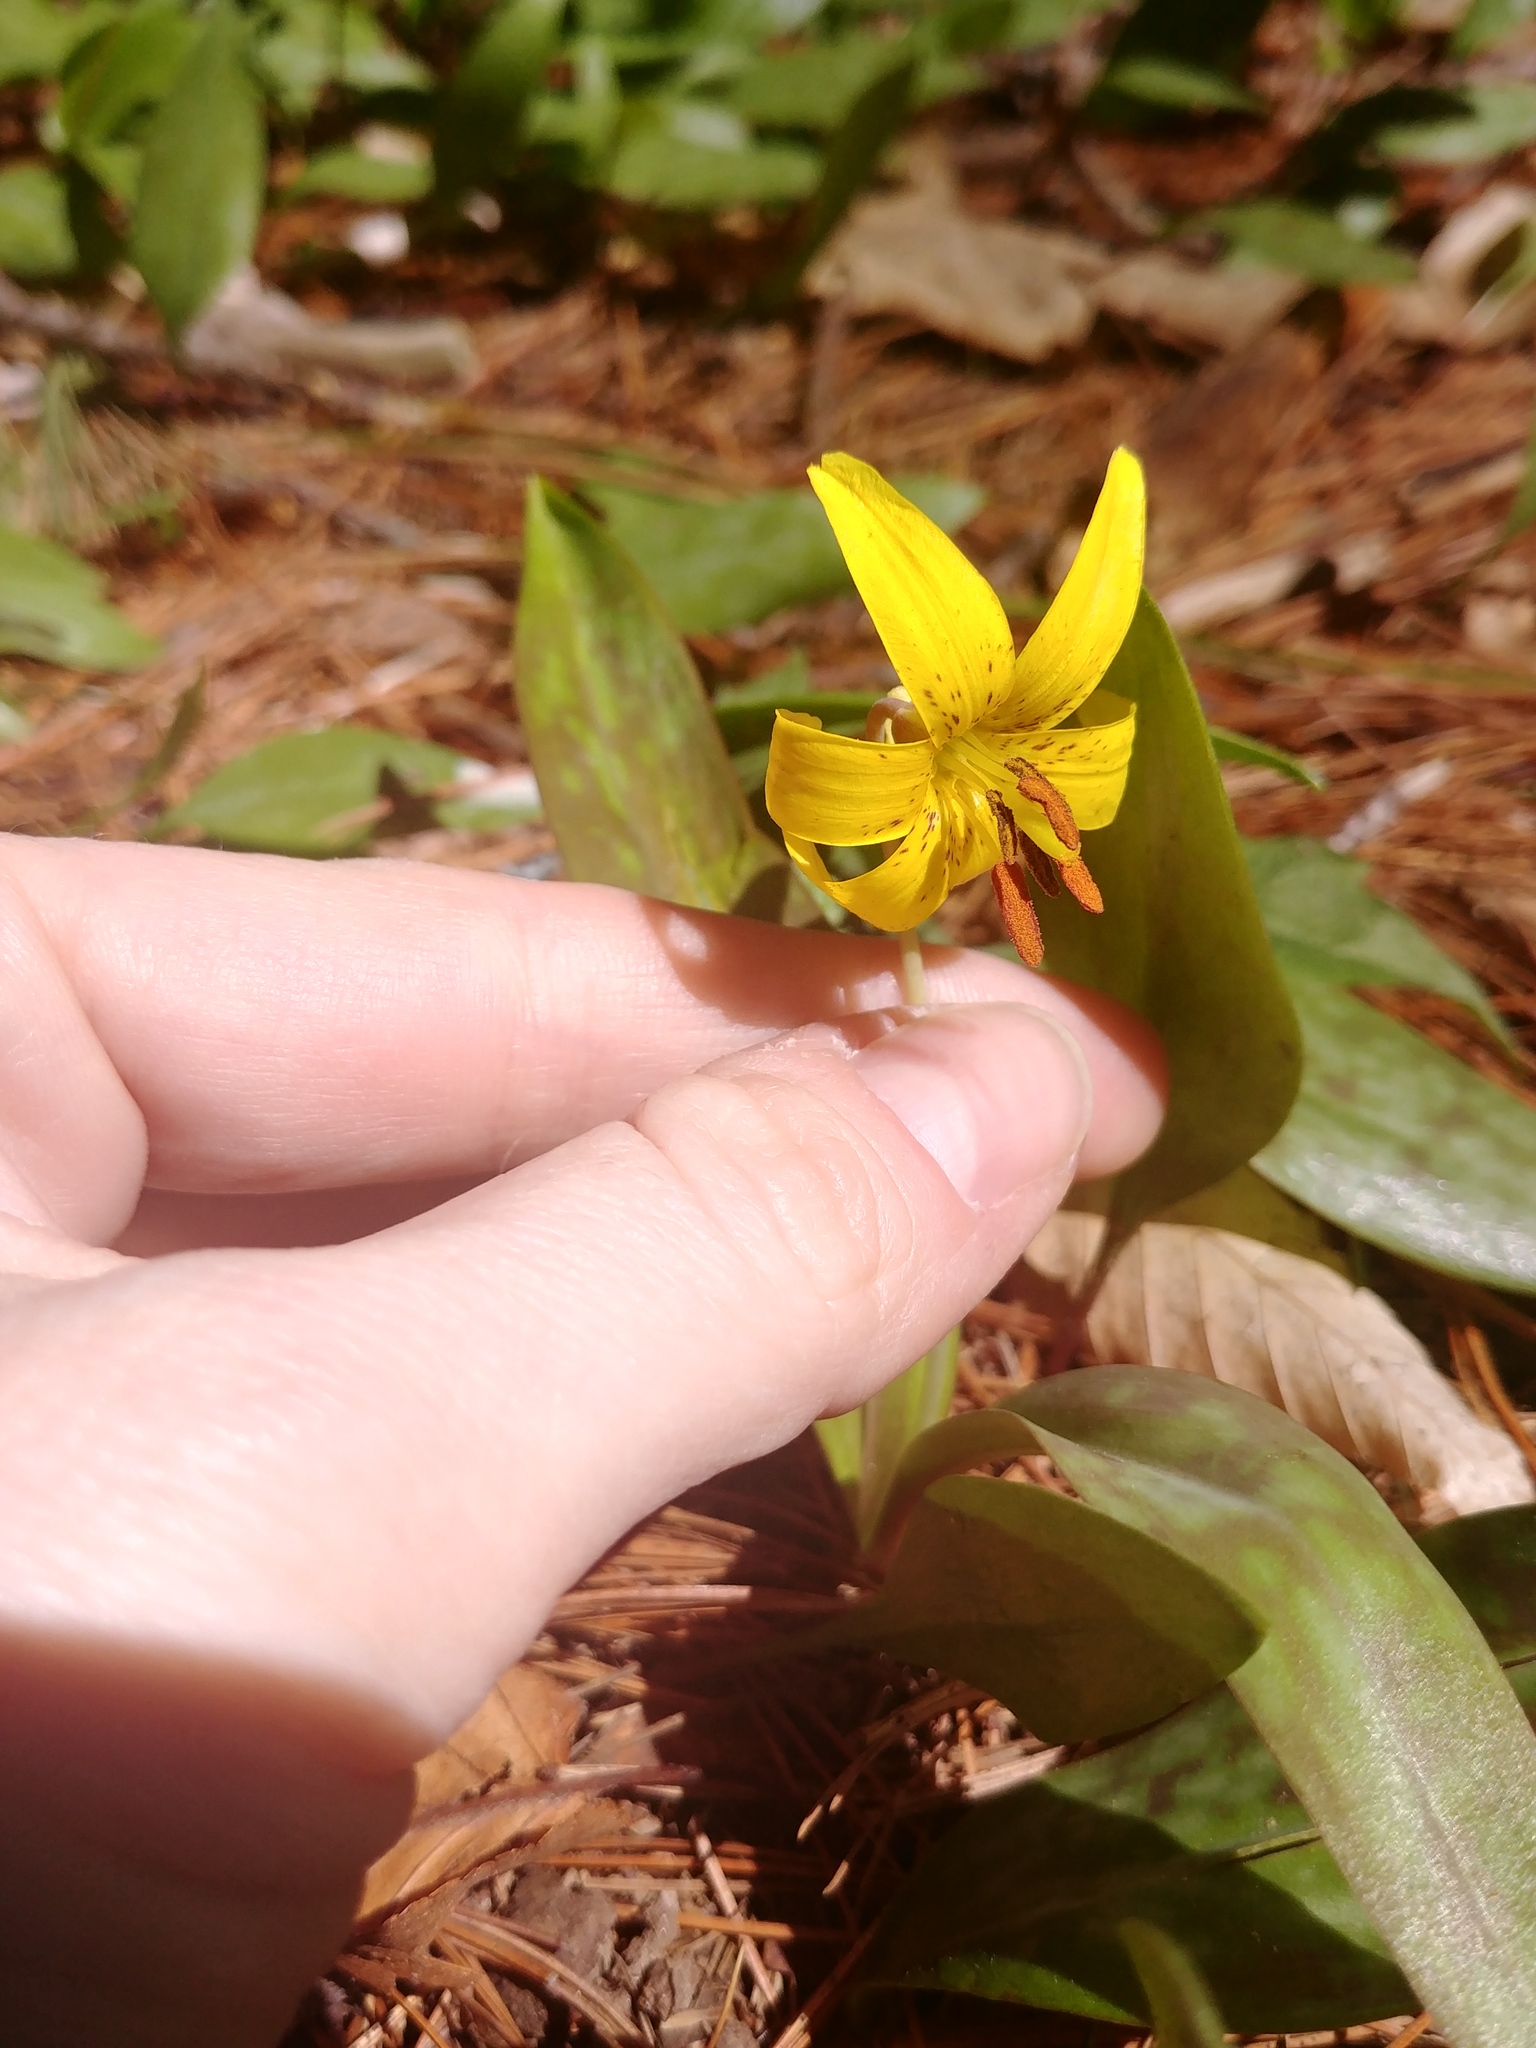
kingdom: Plantae
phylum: Tracheophyta
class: Liliopsida
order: Liliales
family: Liliaceae
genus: Erythronium
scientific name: Erythronium americanum
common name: Yellow adder's-tongue
